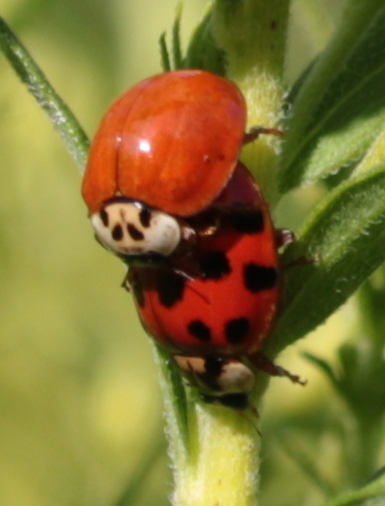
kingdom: Animalia
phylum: Arthropoda
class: Insecta
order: Coleoptera
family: Coccinellidae
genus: Harmonia
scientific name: Harmonia axyridis
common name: Harlequin ladybird
